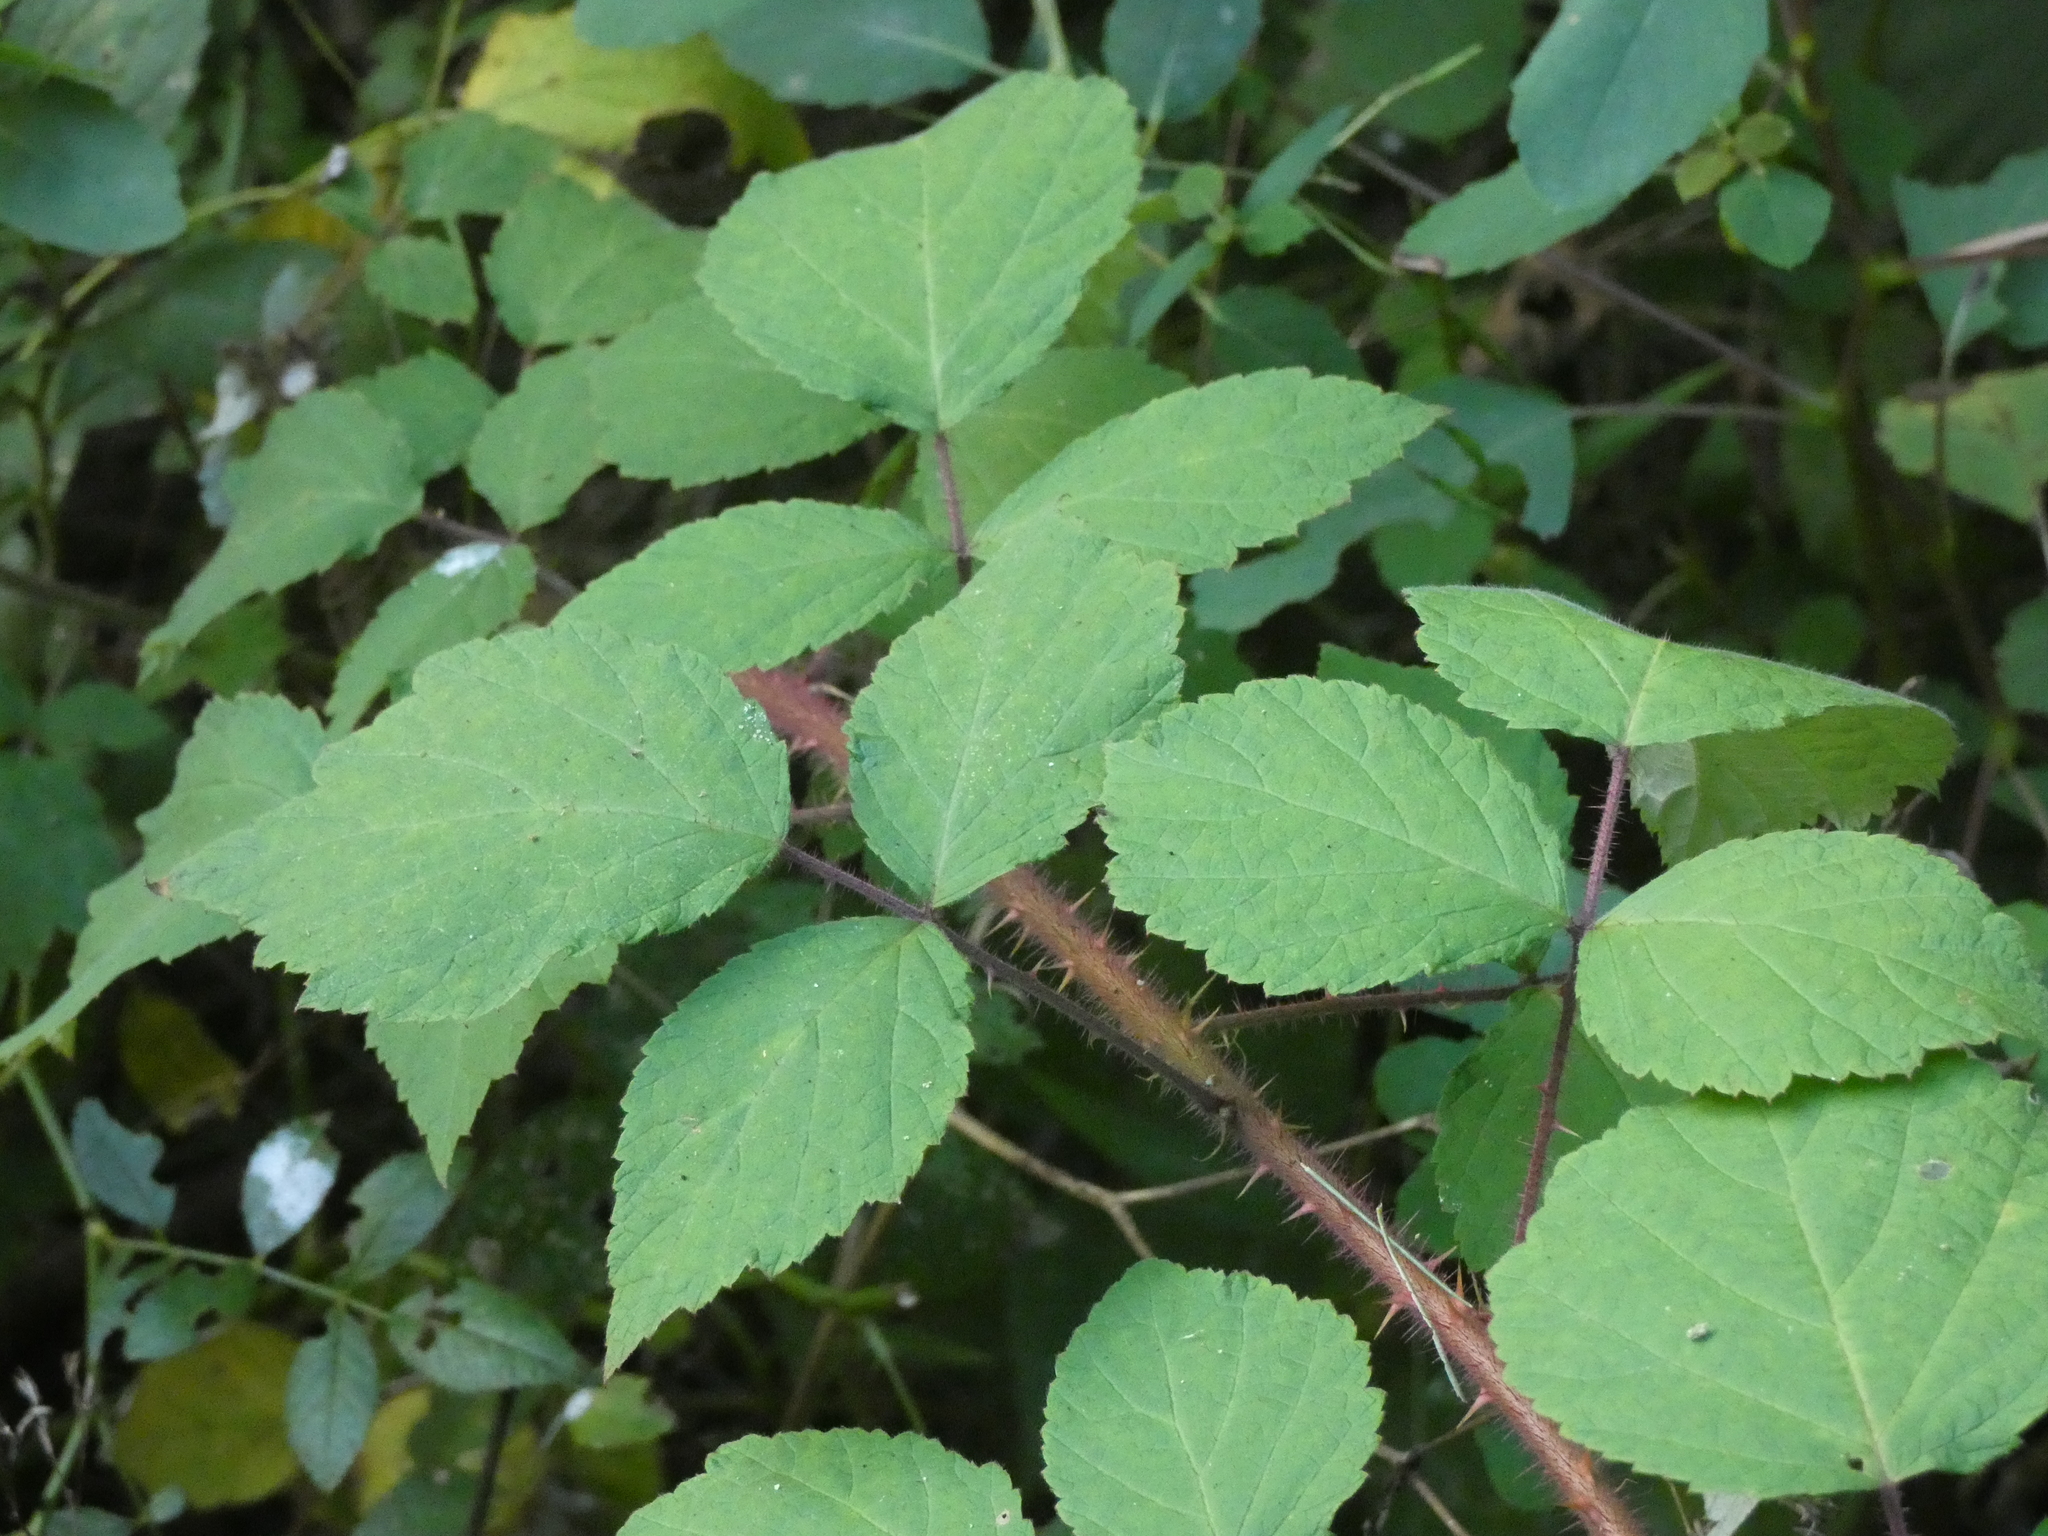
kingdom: Plantae
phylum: Tracheophyta
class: Magnoliopsida
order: Rosales
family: Rosaceae
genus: Rubus
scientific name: Rubus phoenicolasius
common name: Japanese wineberry
